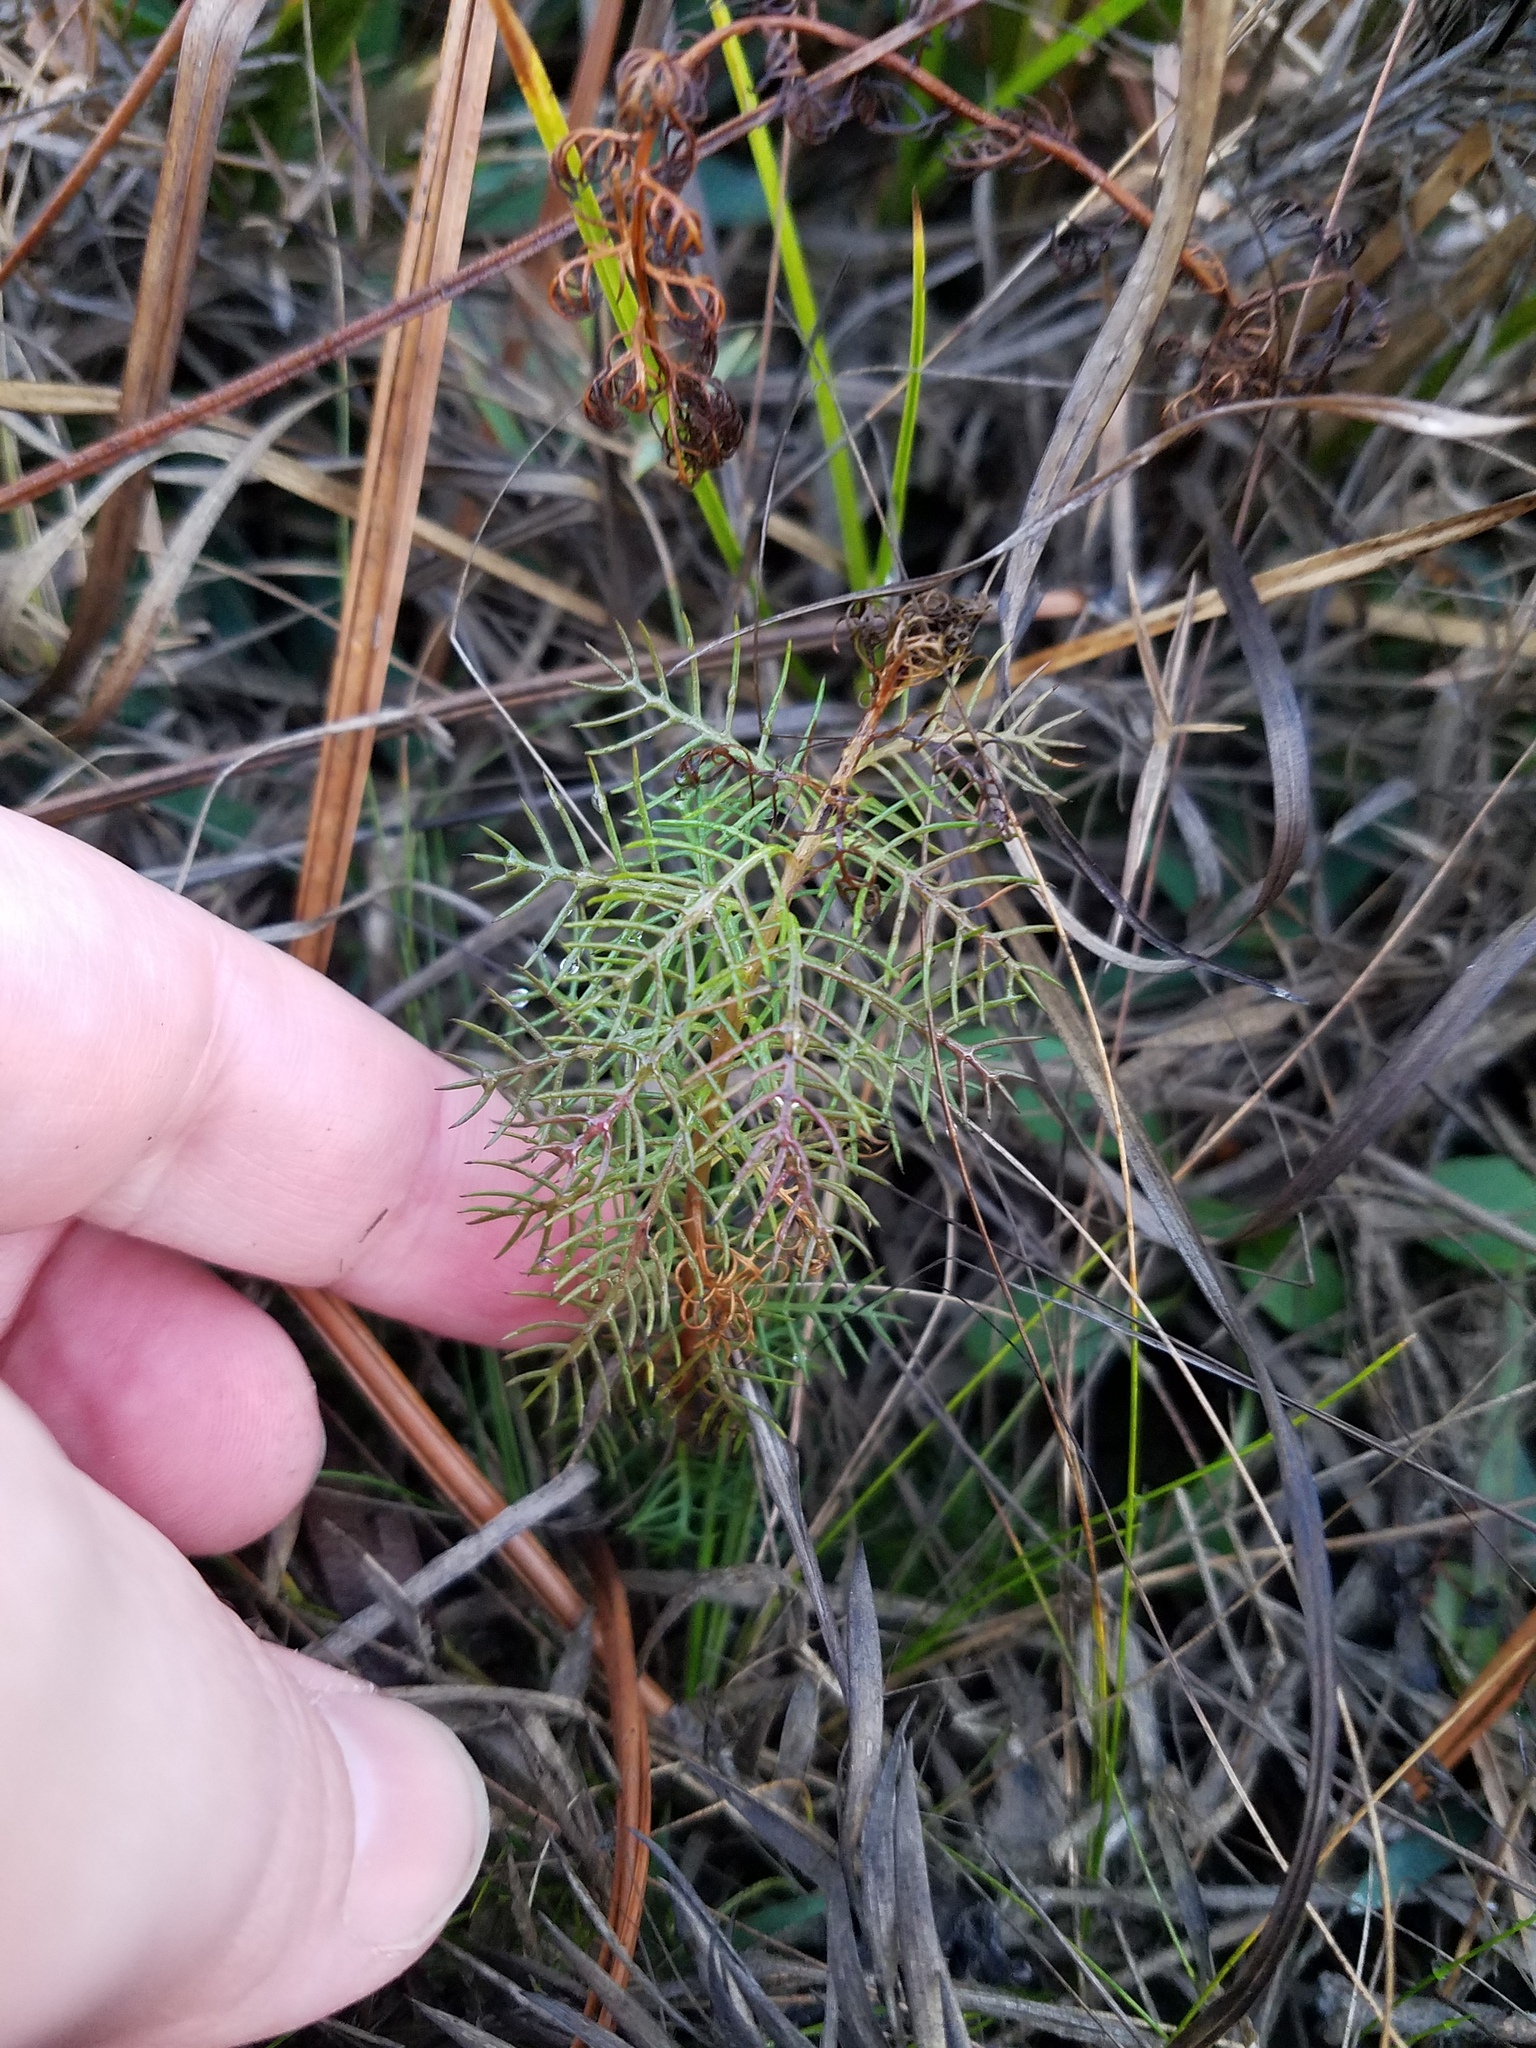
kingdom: Plantae
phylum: Tracheophyta
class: Magnoliopsida
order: Saxifragales
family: Haloragaceae
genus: Proserpinaca
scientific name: Proserpinaca pectinata
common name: Comb-leaved mermaidweed
